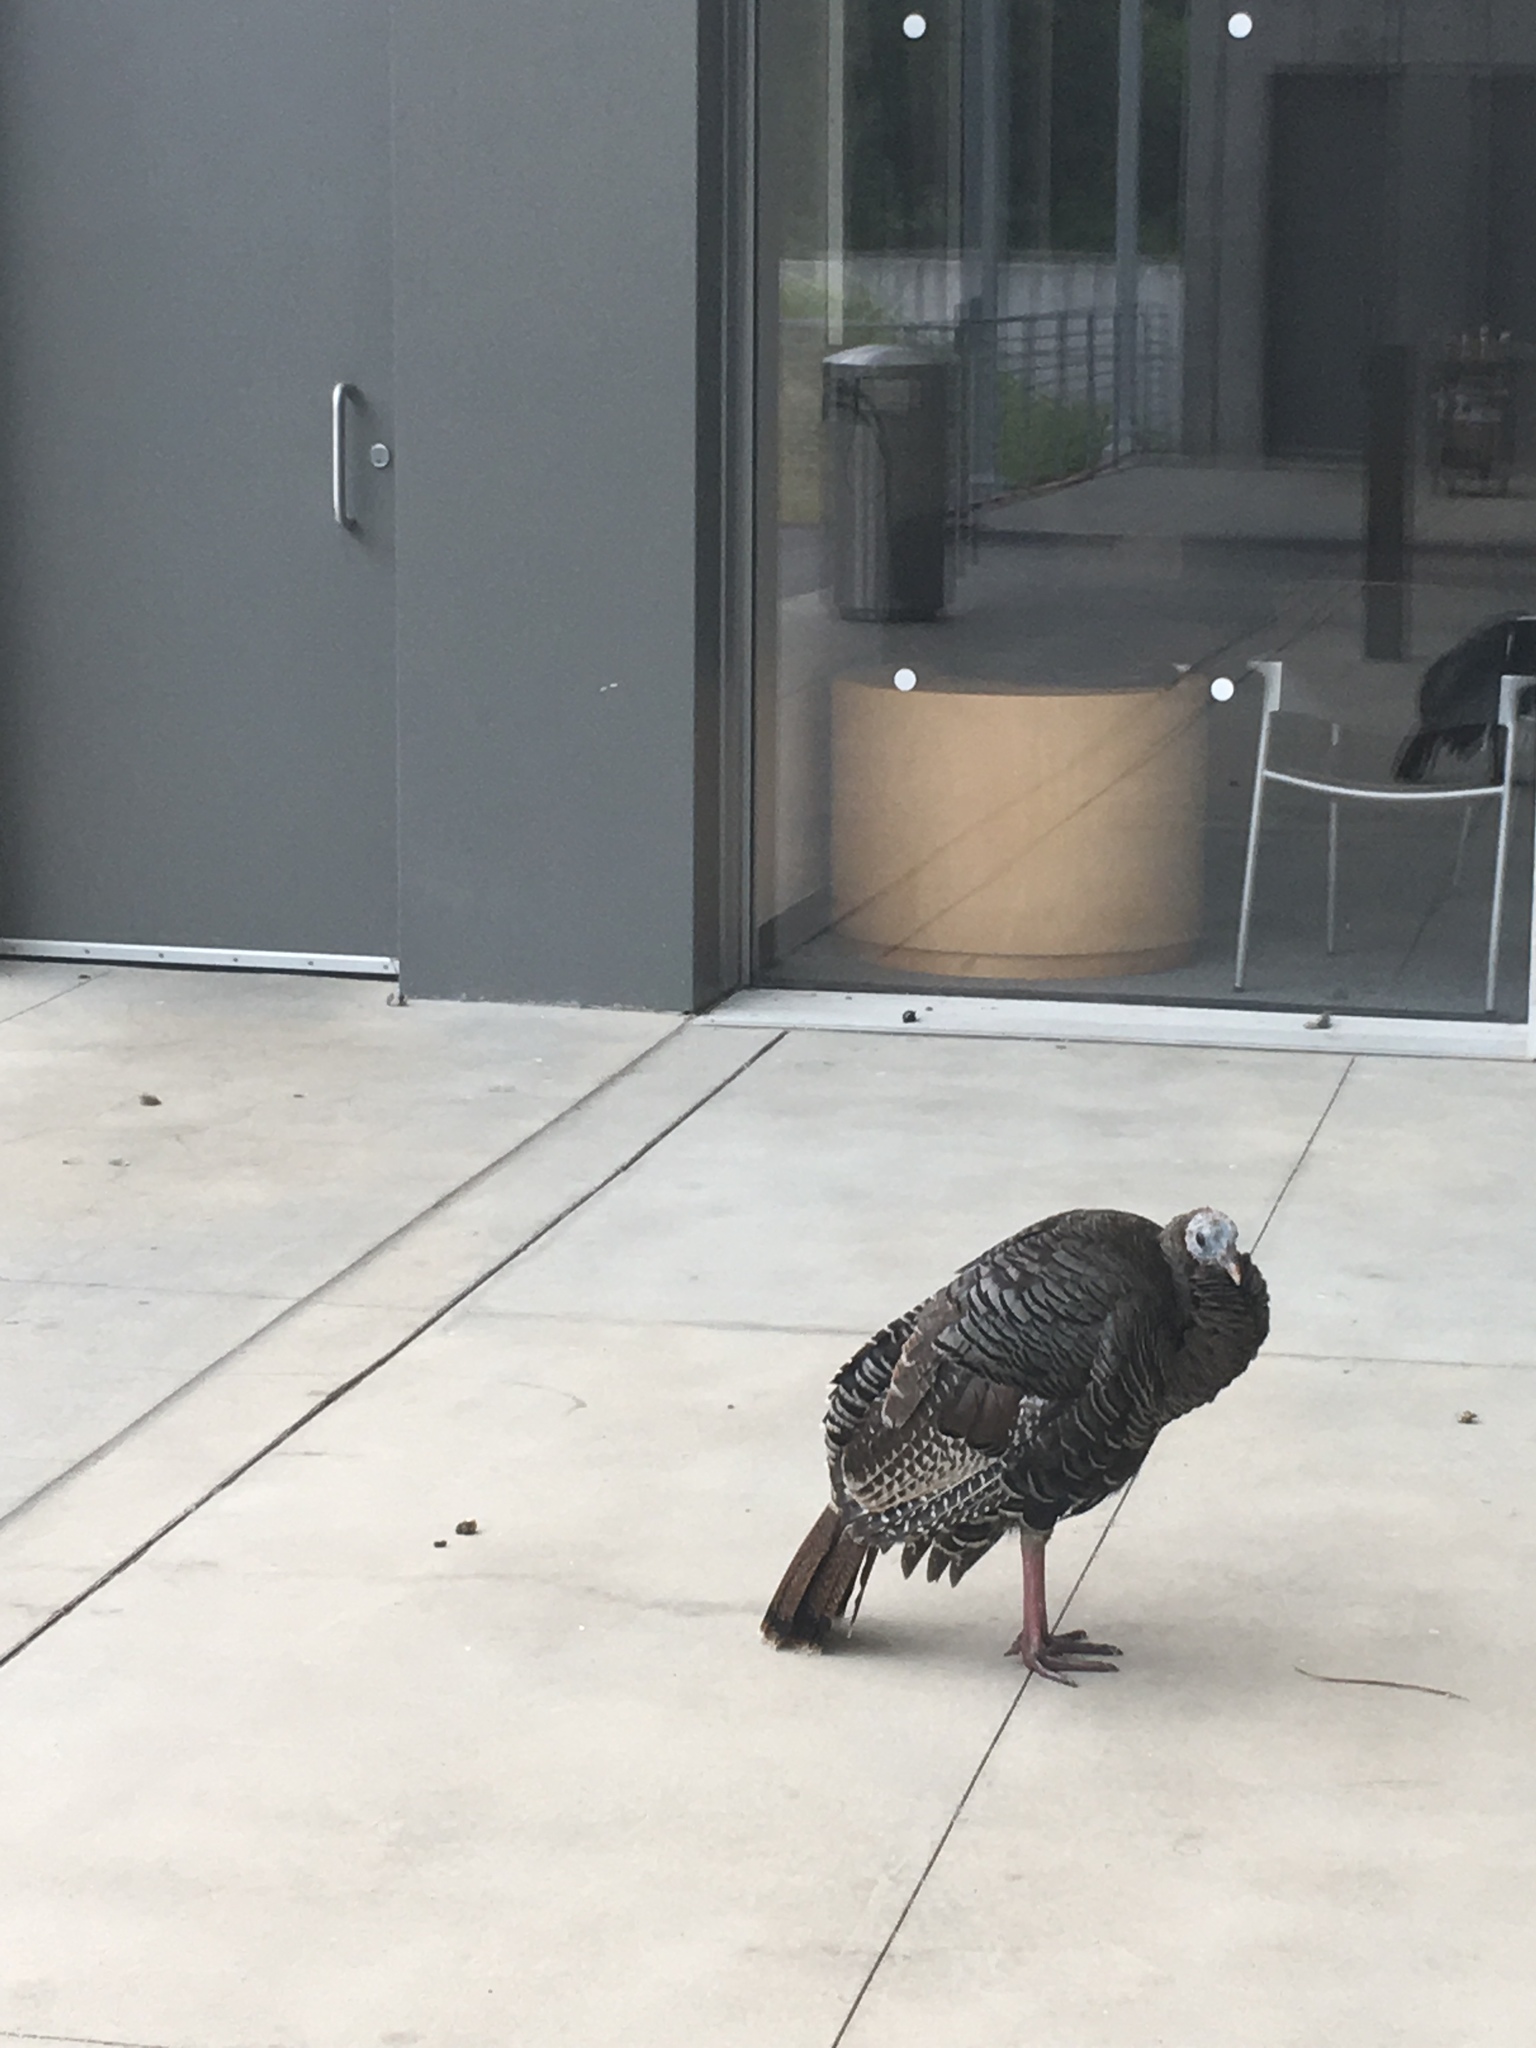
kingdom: Animalia
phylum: Chordata
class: Aves
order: Galliformes
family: Phasianidae
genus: Meleagris
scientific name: Meleagris gallopavo
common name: Wild turkey
